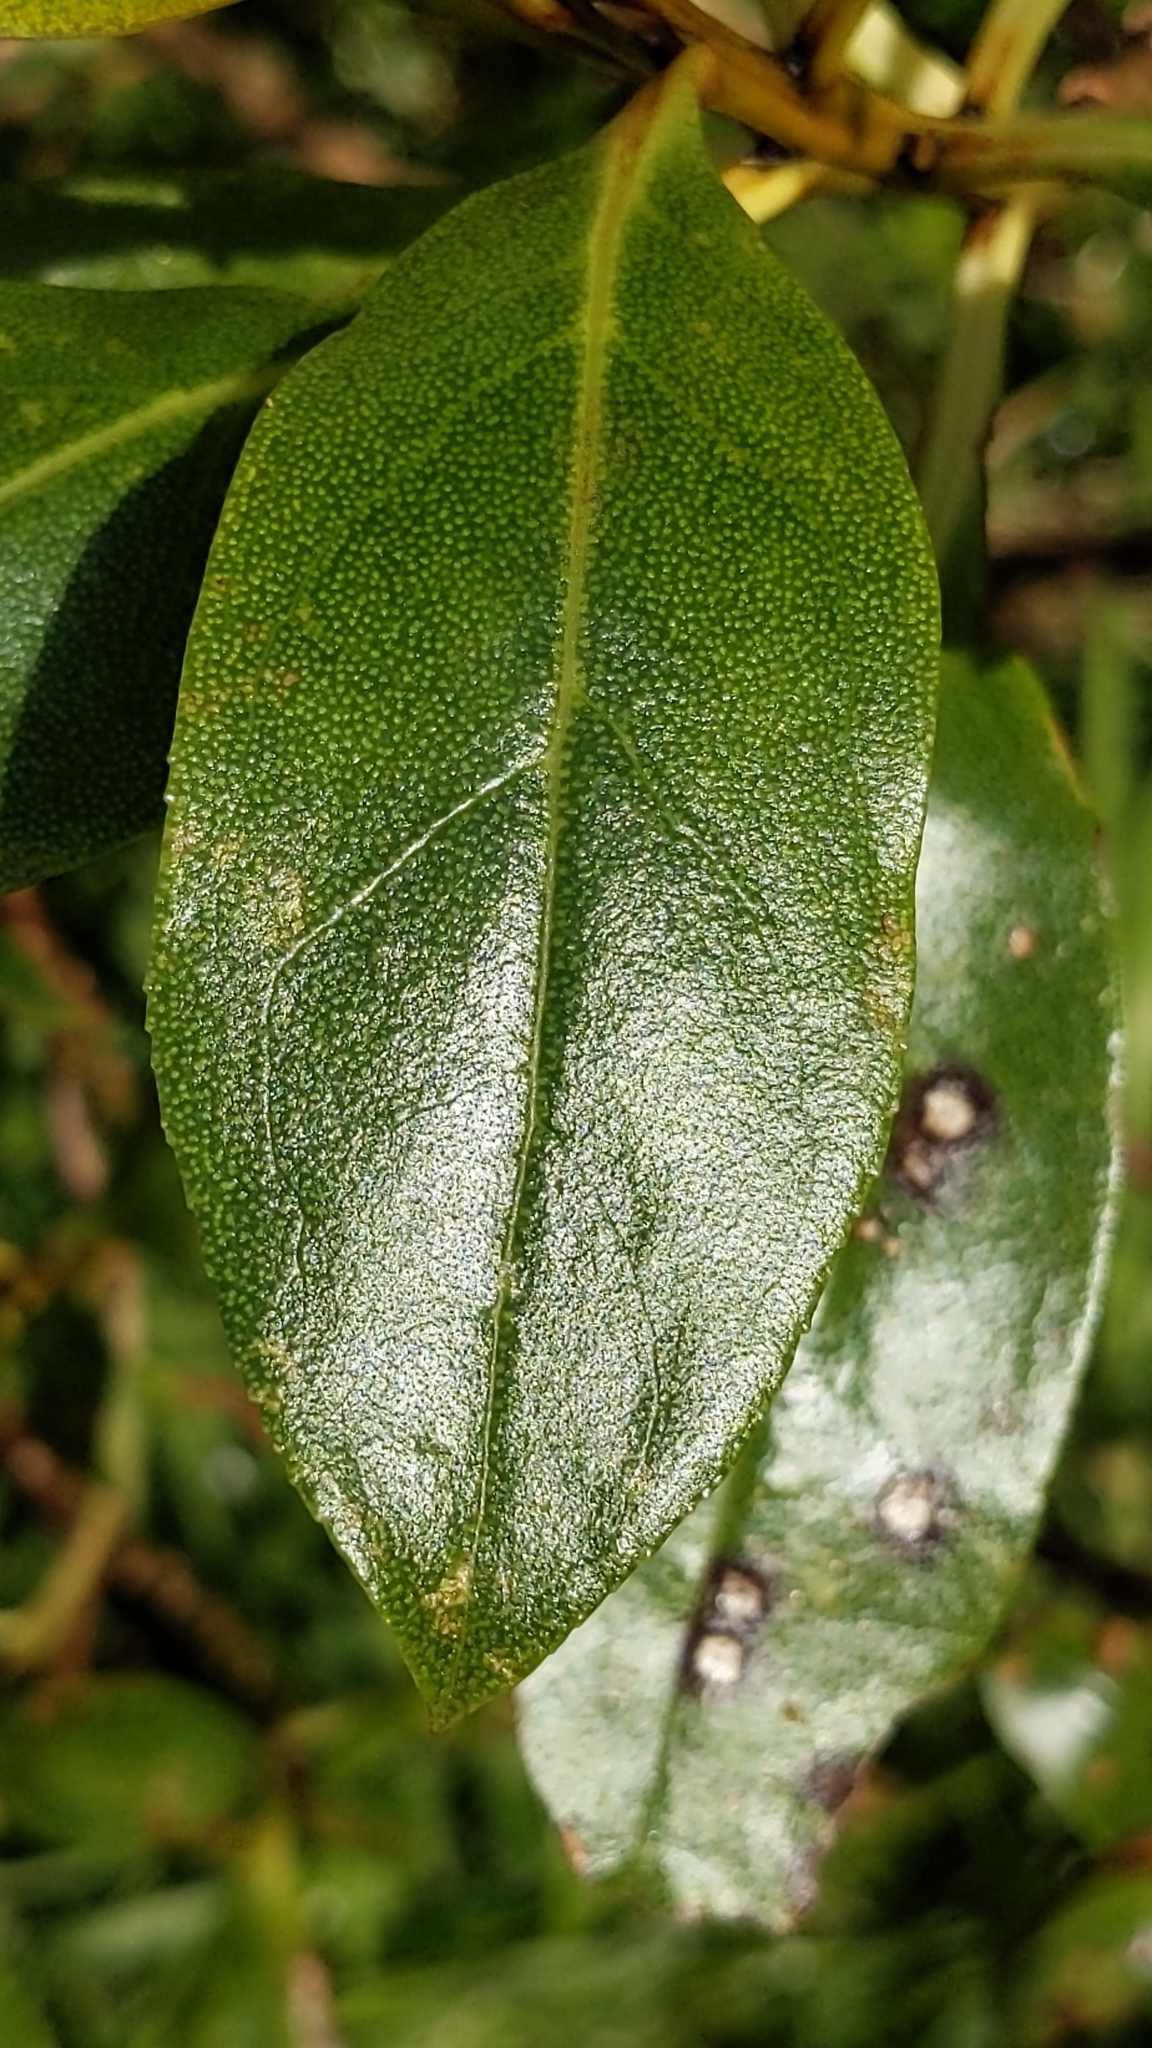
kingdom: Plantae
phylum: Tracheophyta
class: Magnoliopsida
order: Lamiales
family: Scrophulariaceae
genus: Myoporum
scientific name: Myoporum laetum
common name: Ngaio tree
